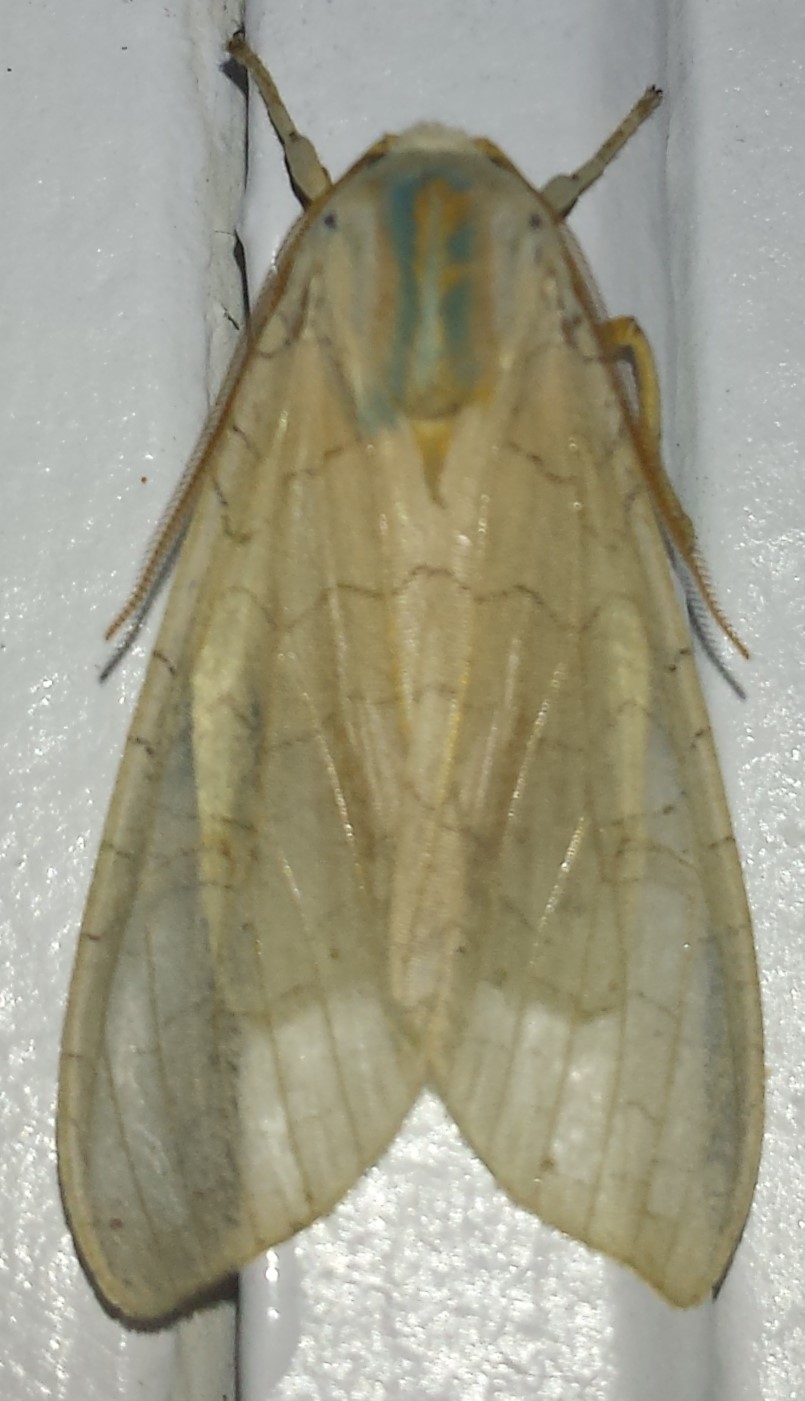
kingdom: Animalia
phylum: Arthropoda
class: Insecta
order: Lepidoptera
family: Erebidae
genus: Halysidota
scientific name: Halysidota tessellaris
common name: Banded tussock moth
